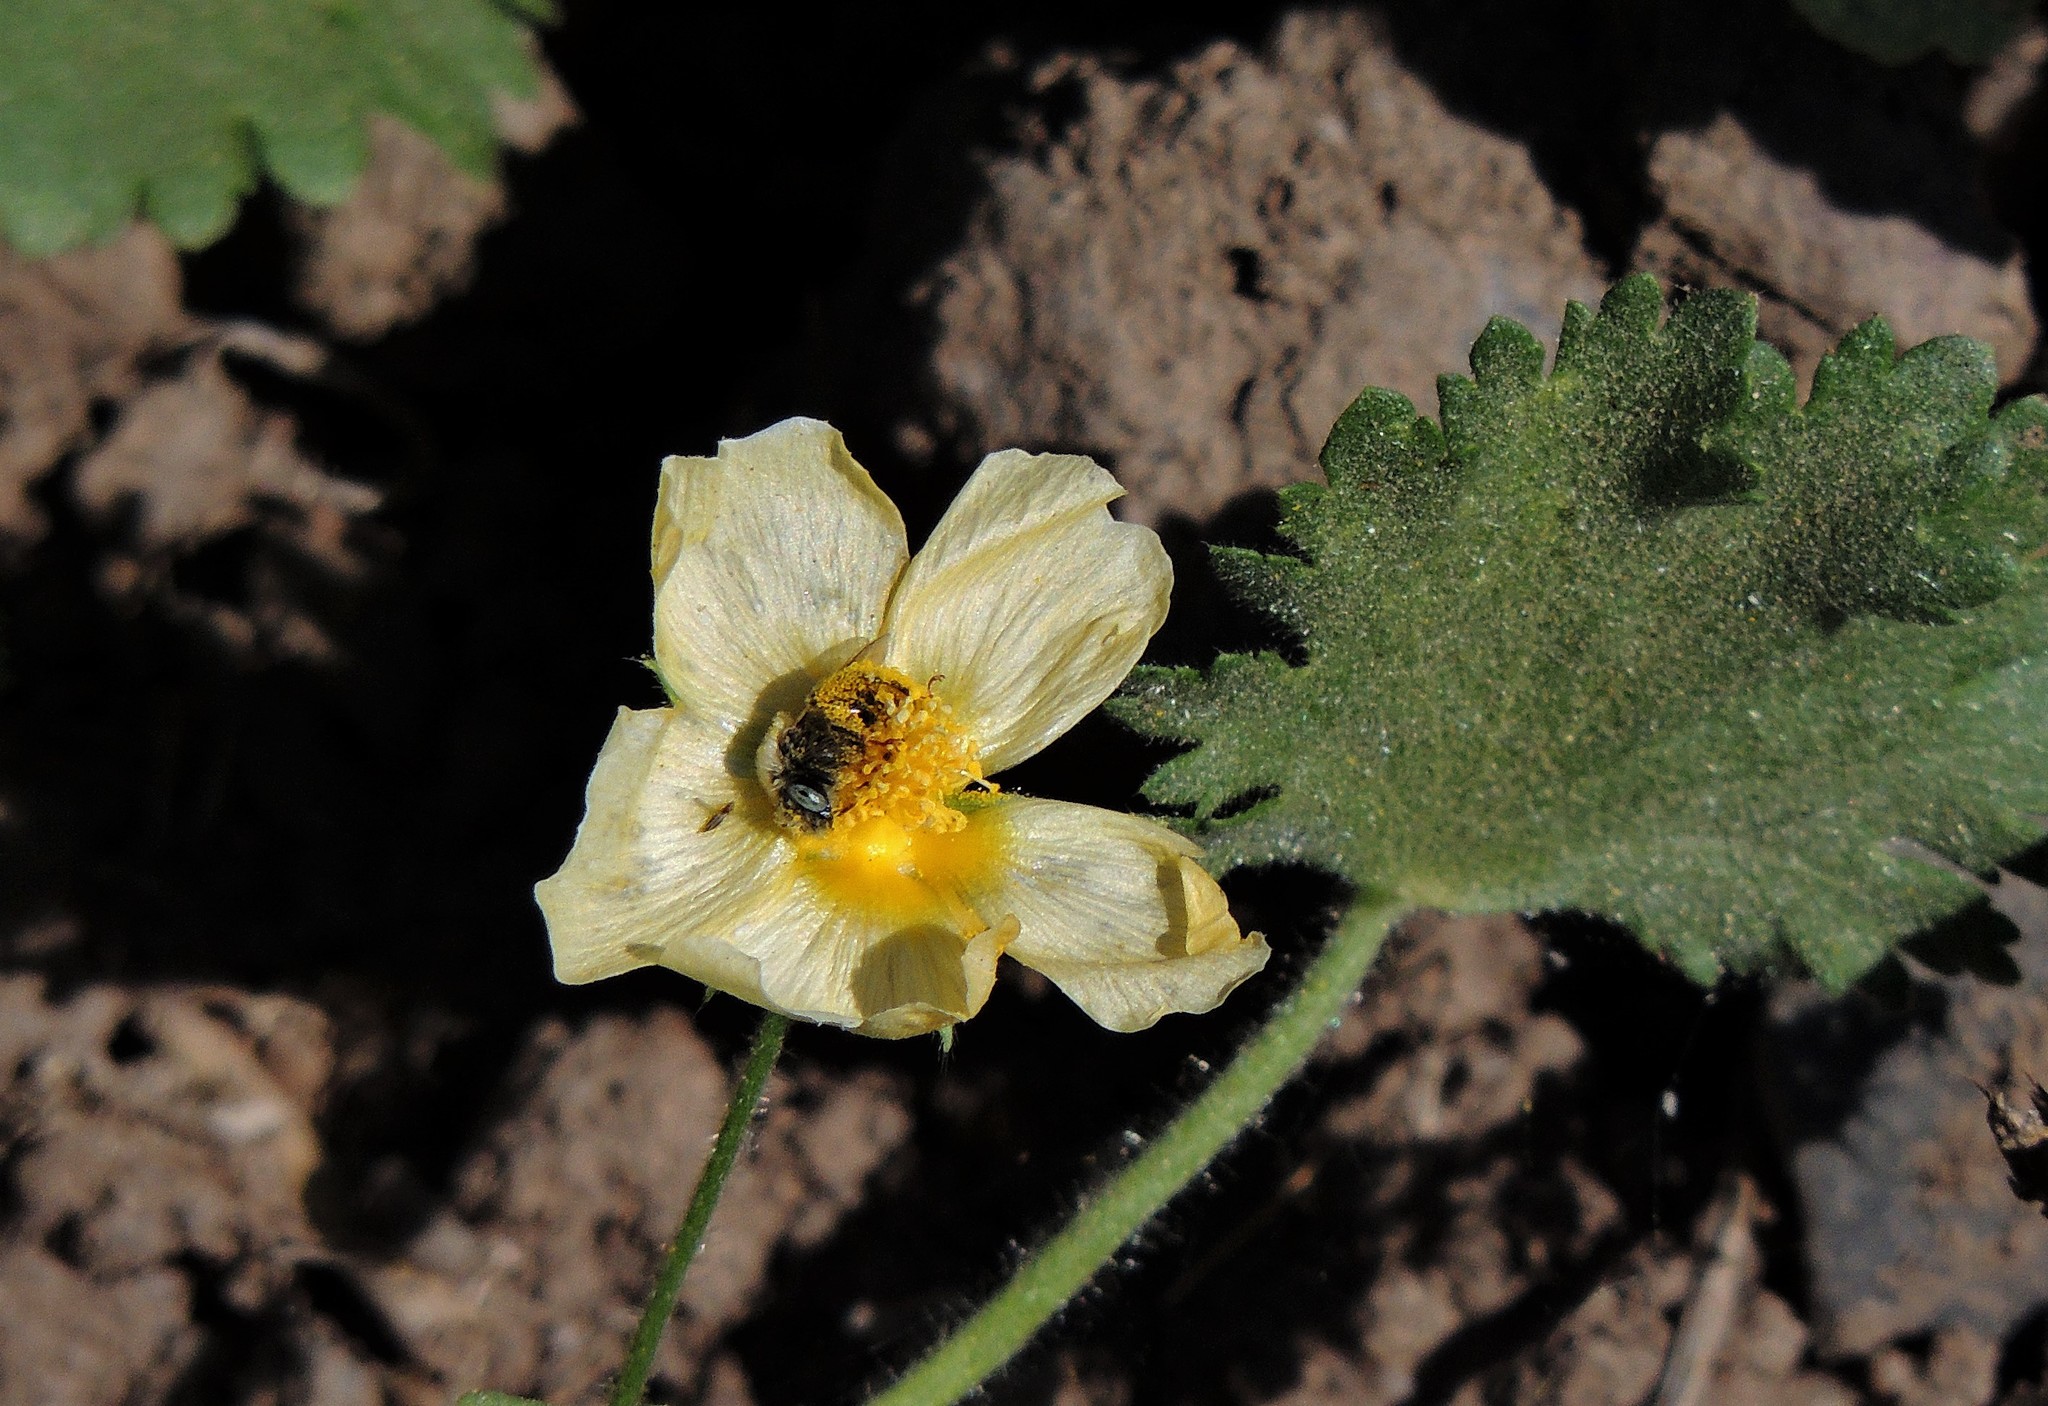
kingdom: Plantae
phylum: Tracheophyta
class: Magnoliopsida
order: Malvales
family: Malvaceae
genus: Modiolastrum
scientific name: Modiolastrum malvifolium
